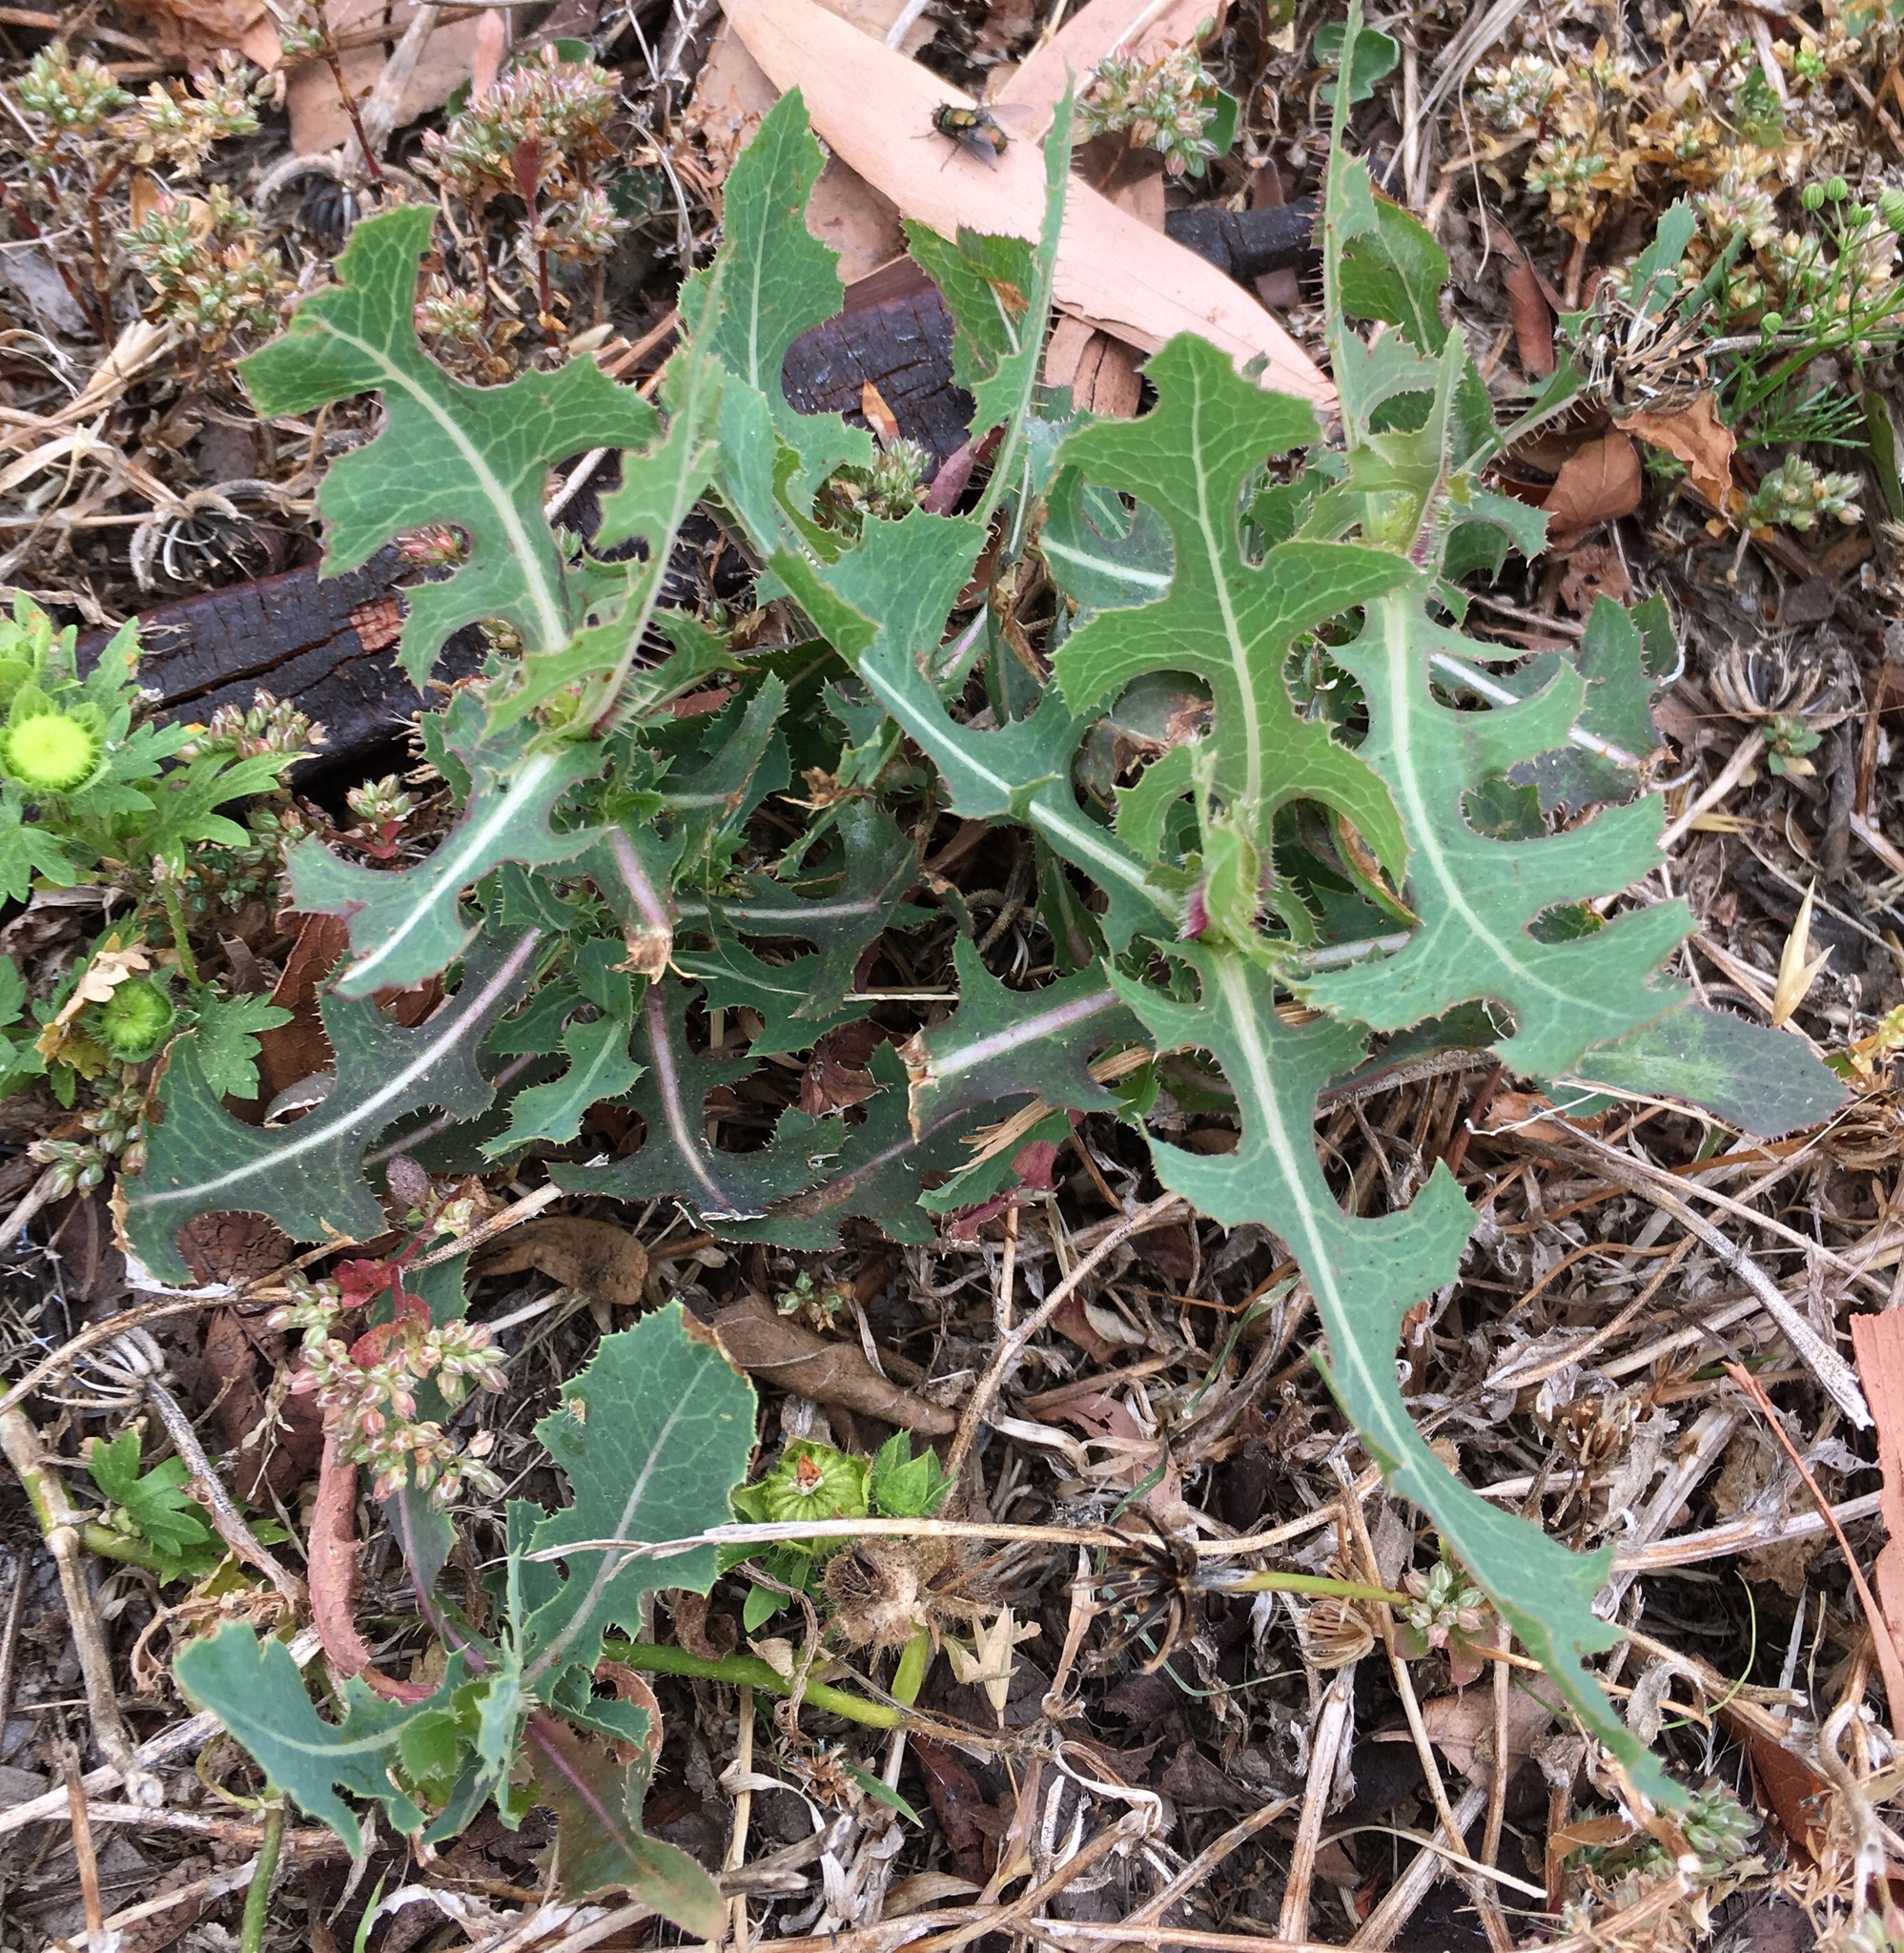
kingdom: Plantae
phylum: Tracheophyta
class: Magnoliopsida
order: Asterales
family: Asteraceae
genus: Lactuca
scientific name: Lactuca serriola
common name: Prickly lettuce
